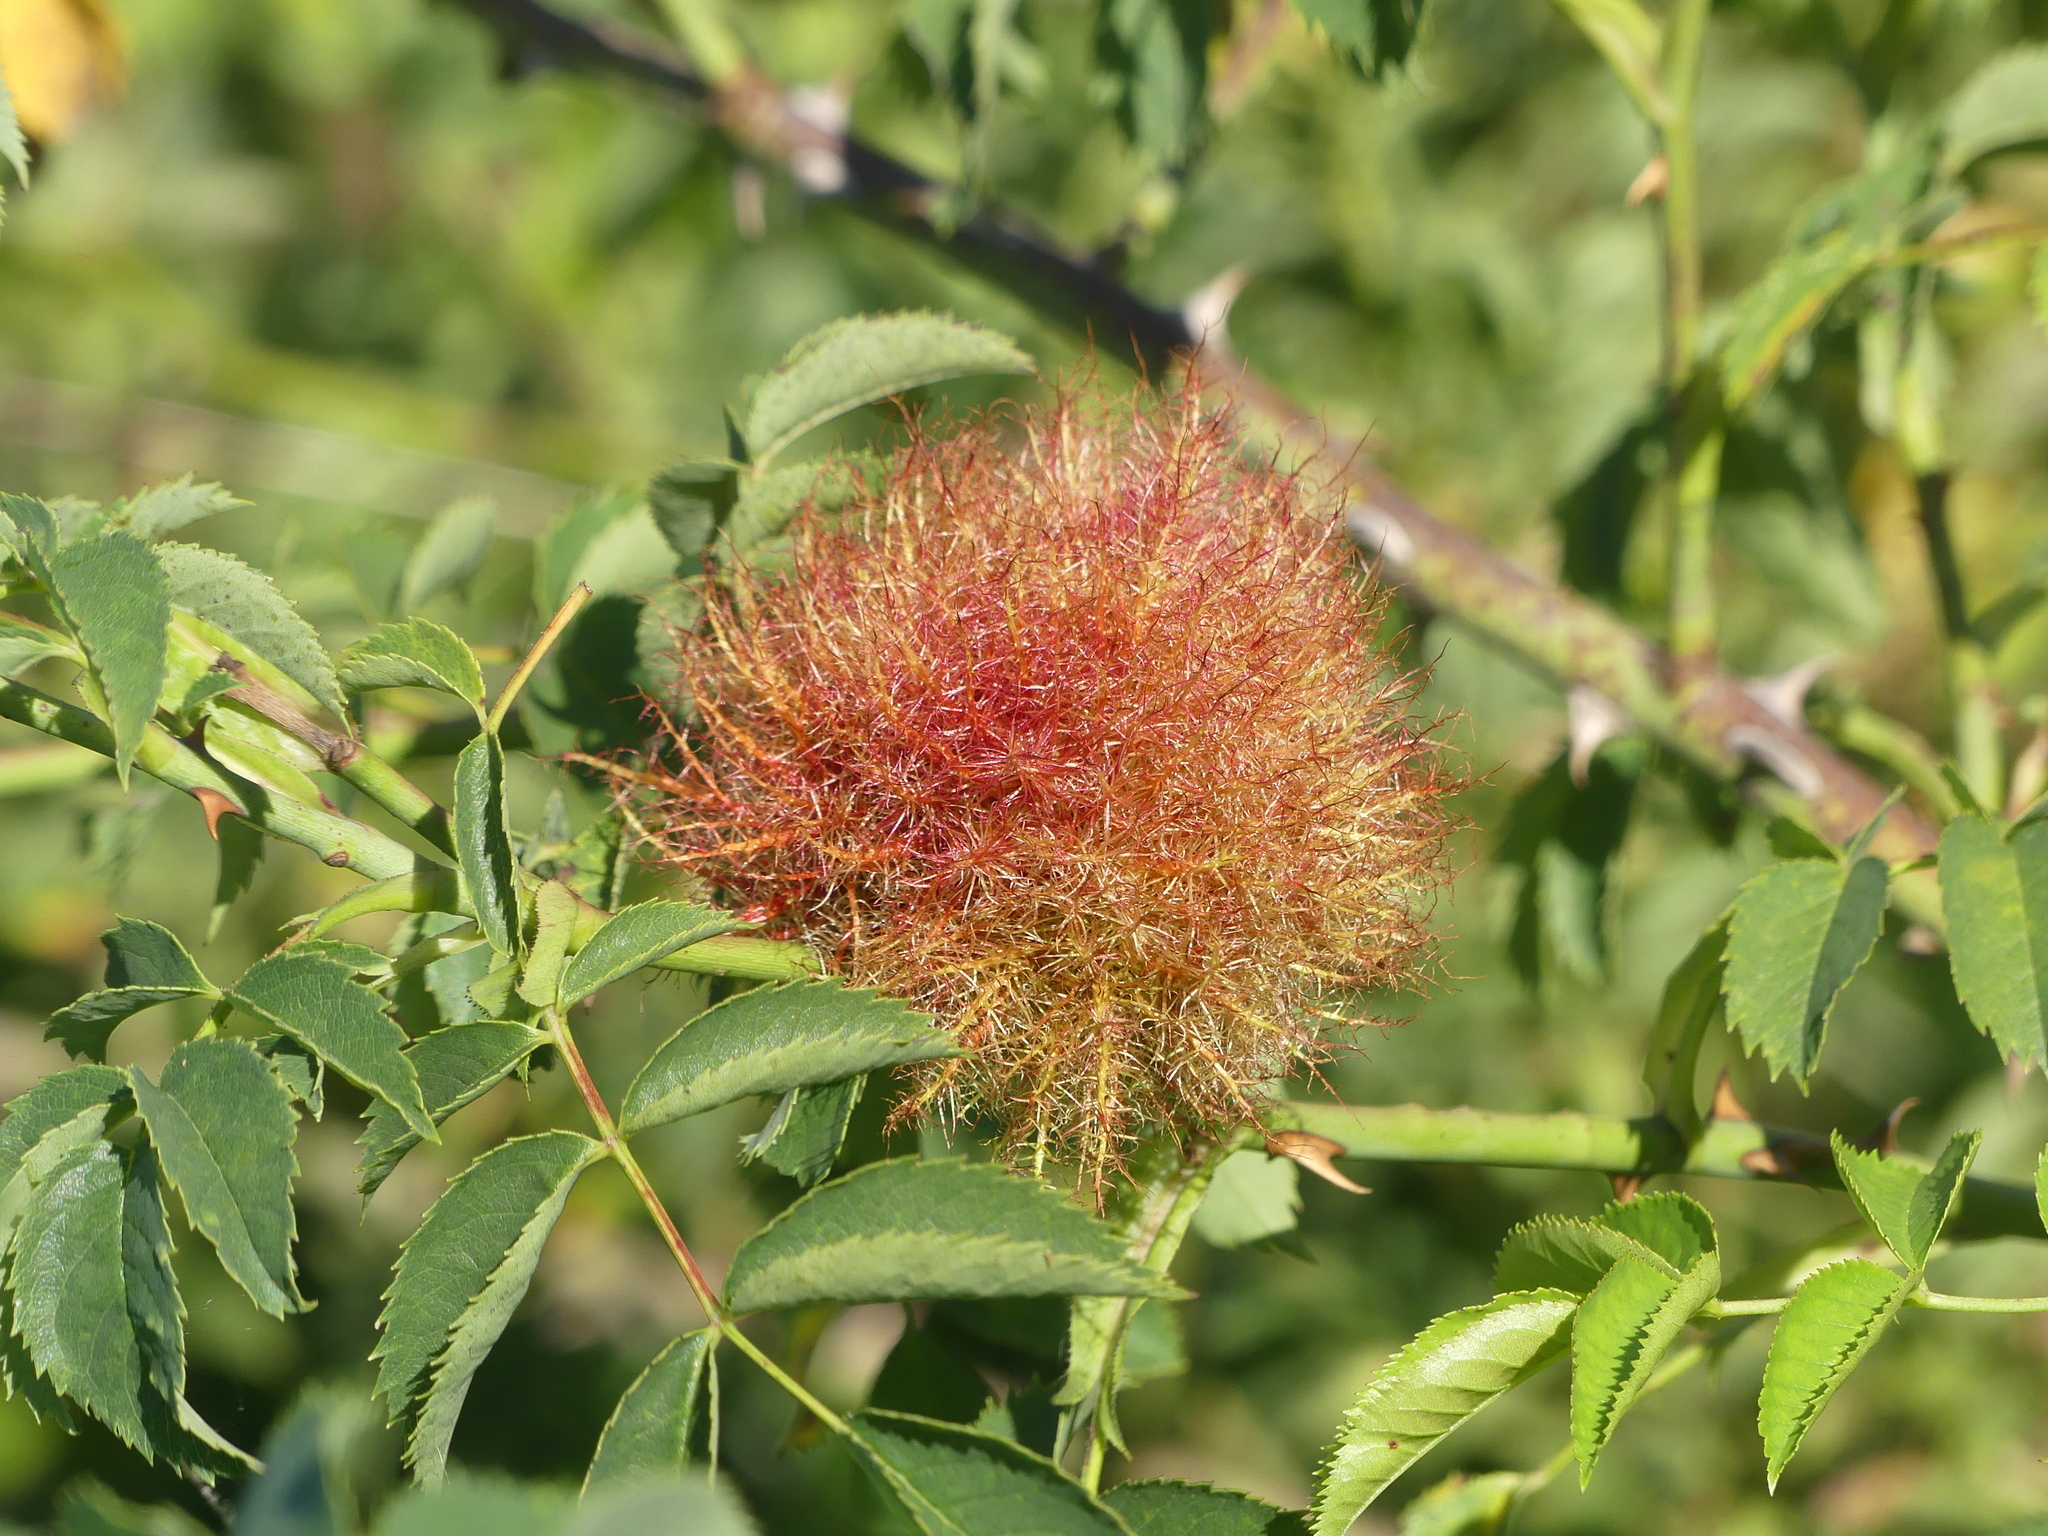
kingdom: Animalia
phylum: Arthropoda
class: Insecta
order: Hymenoptera
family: Cynipidae
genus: Diplolepis
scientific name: Diplolepis rosae
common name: Bedeguar gall
